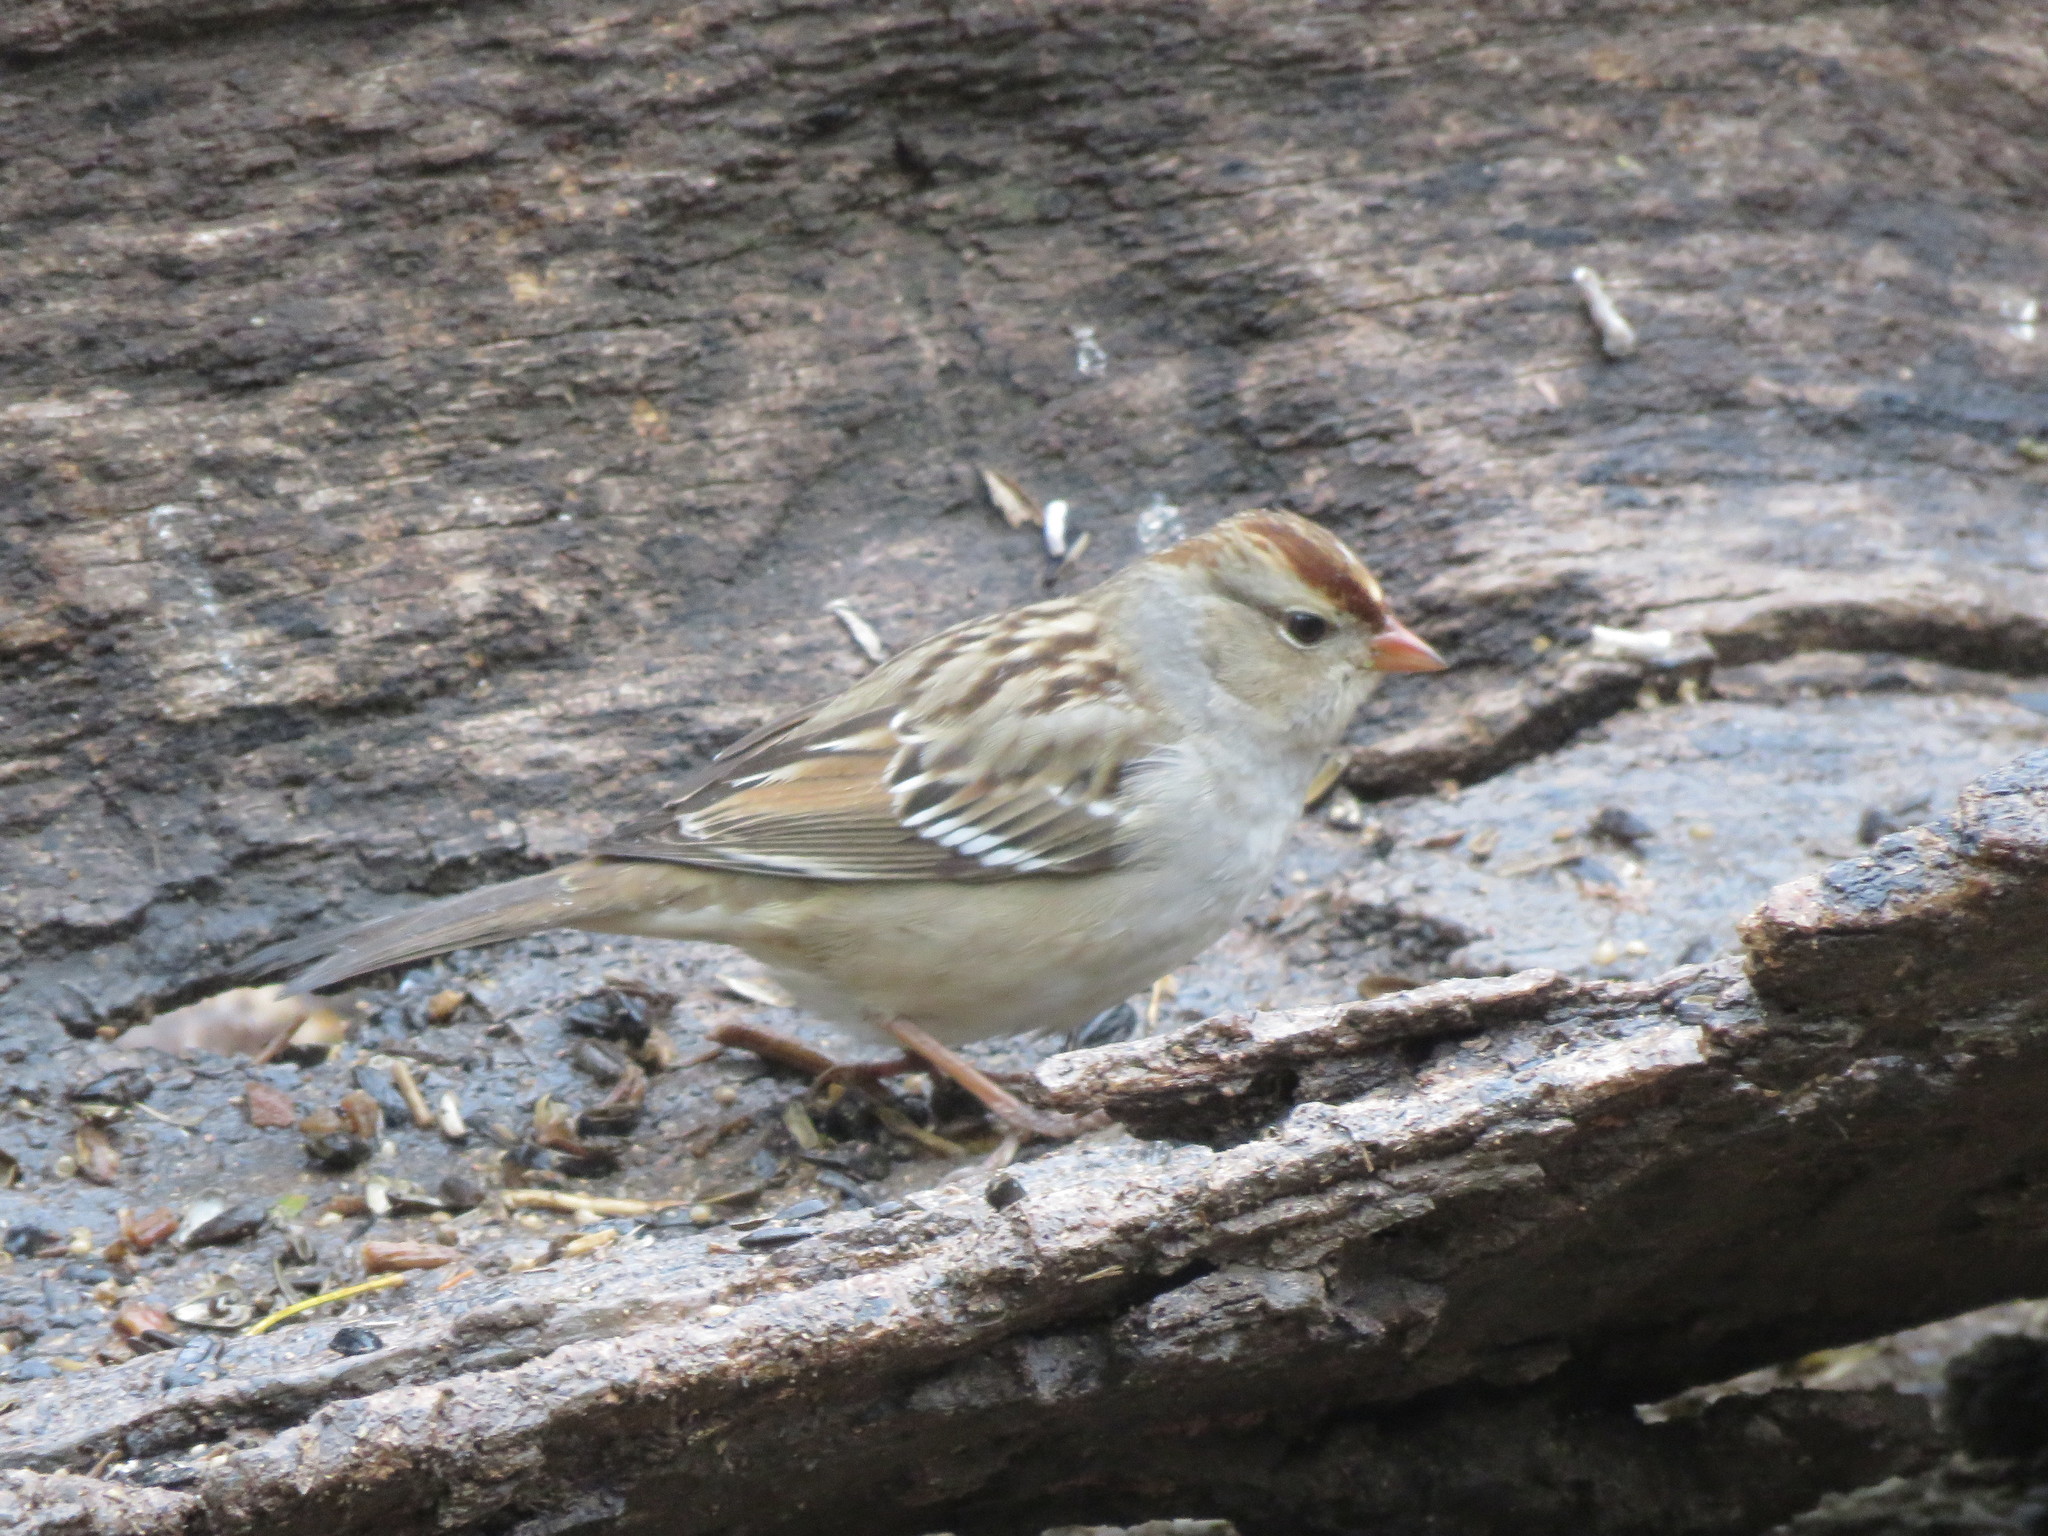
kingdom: Animalia
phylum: Chordata
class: Aves
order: Passeriformes
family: Passerellidae
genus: Zonotrichia
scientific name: Zonotrichia leucophrys
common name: White-crowned sparrow
